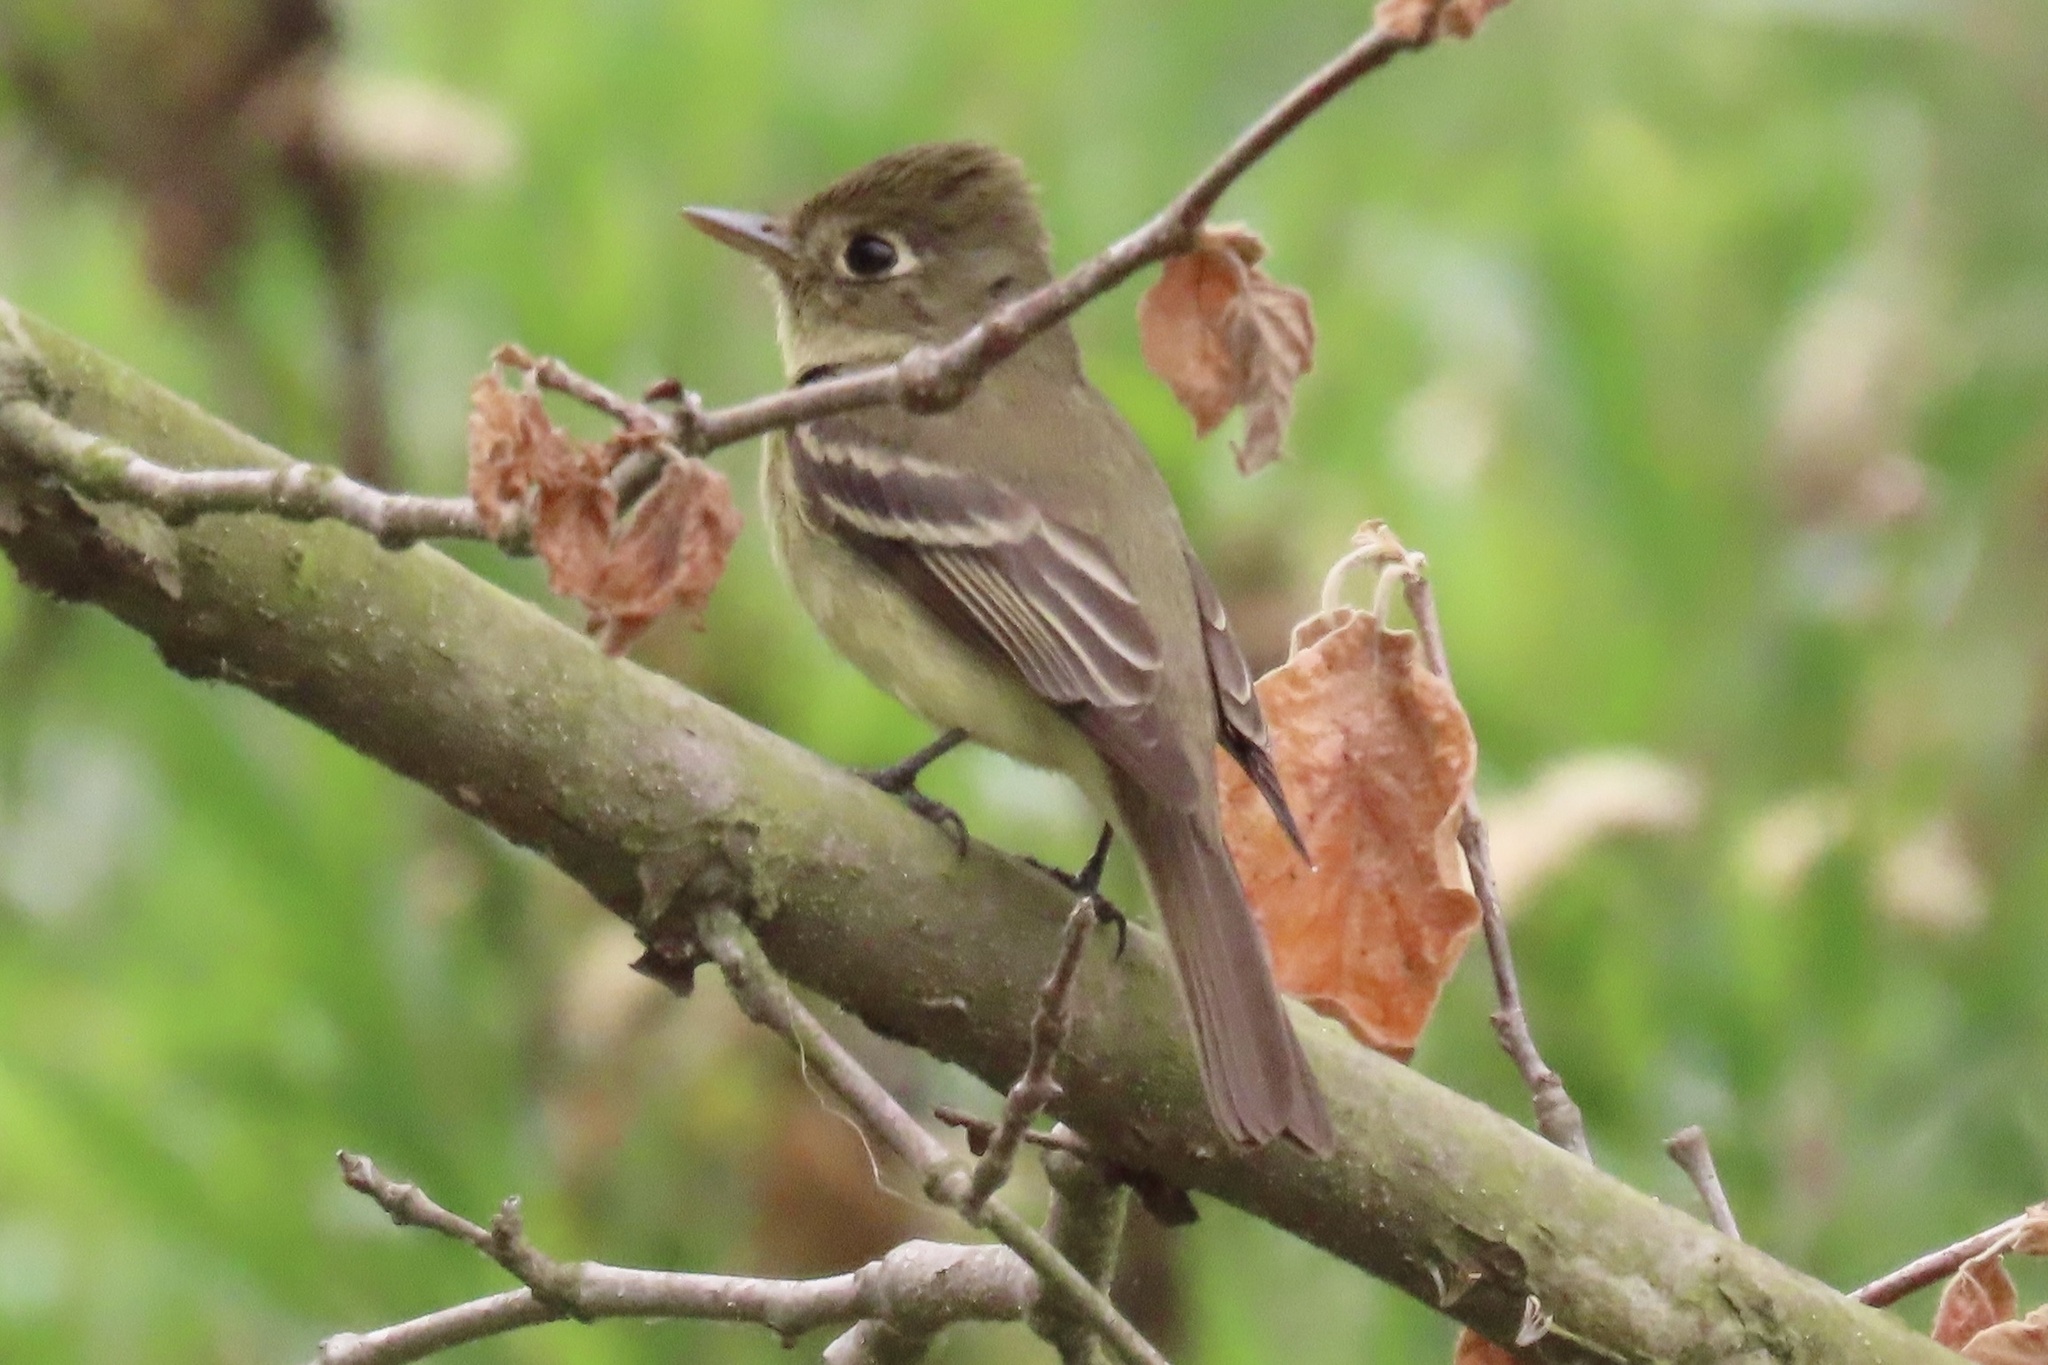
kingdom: Animalia
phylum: Chordata
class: Aves
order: Passeriformes
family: Tyrannidae
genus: Empidonax
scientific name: Empidonax difficilis
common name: Pacific-slope flycatcher
